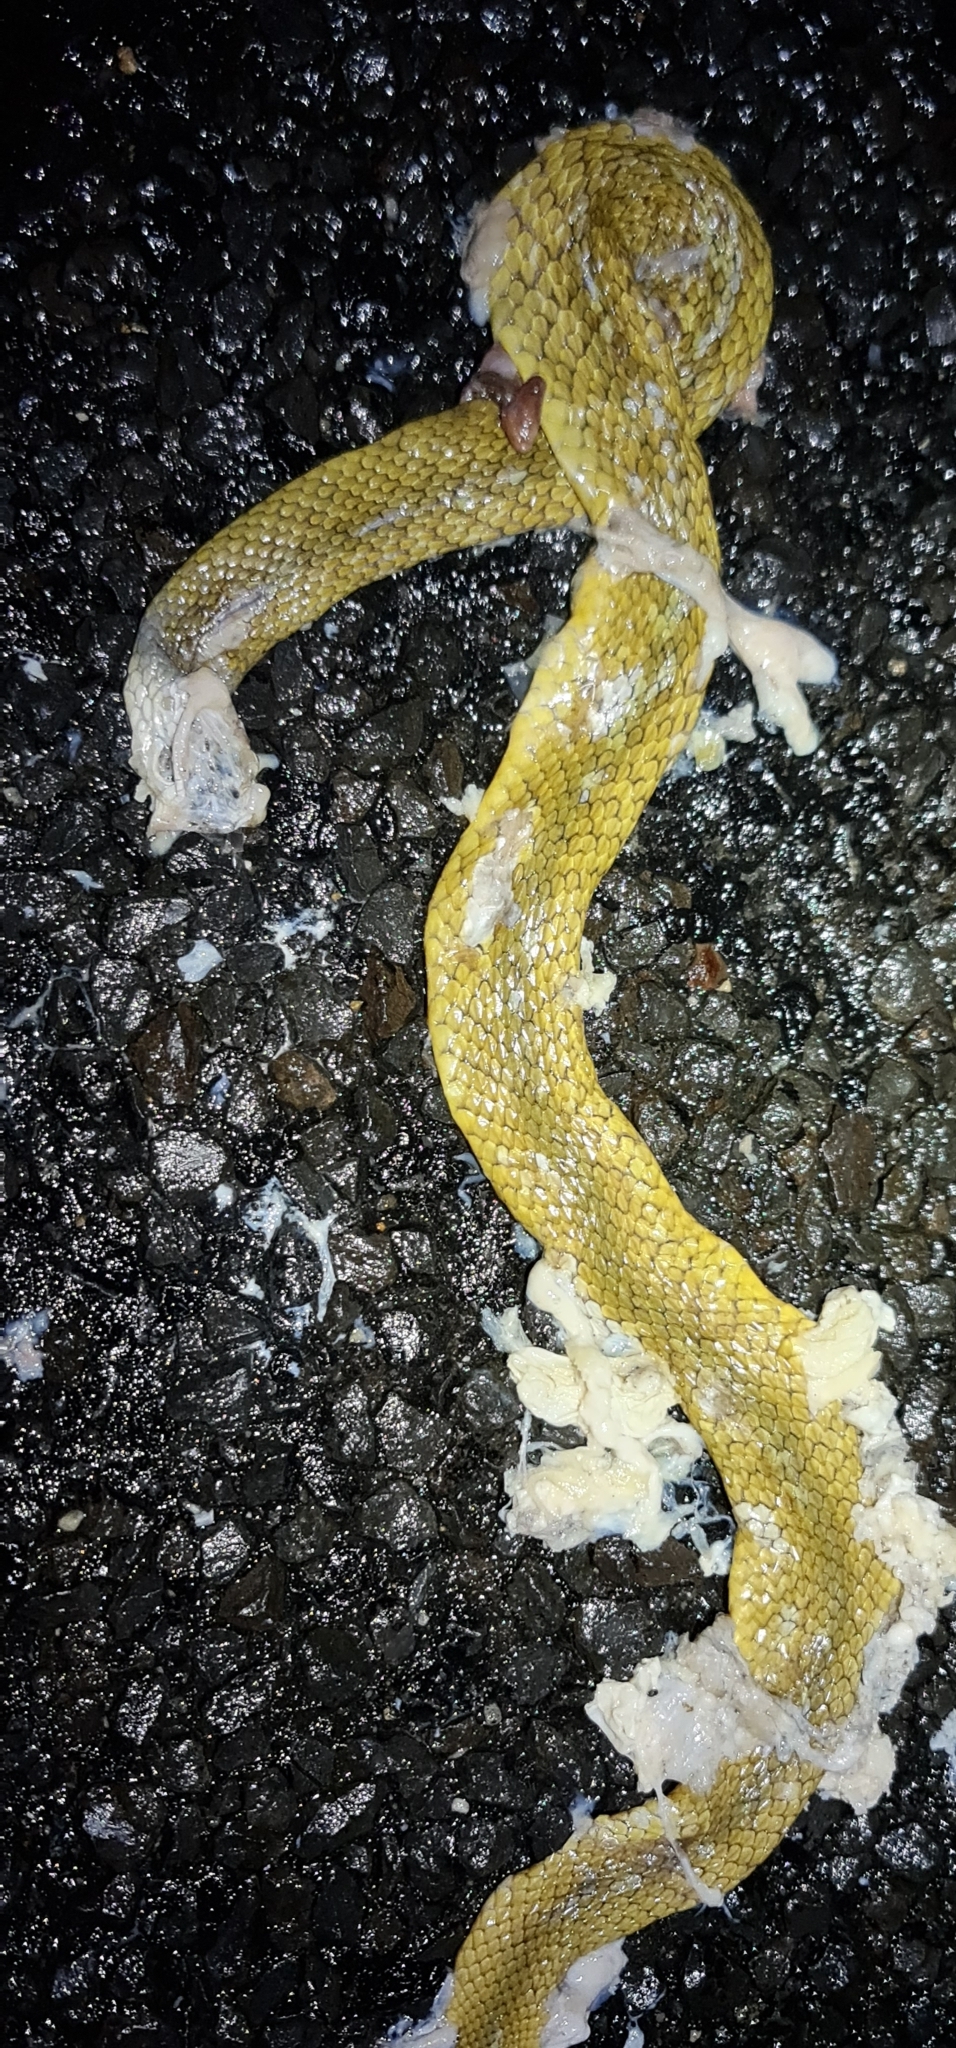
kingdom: Animalia
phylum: Chordata
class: Squamata
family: Colubridae
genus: Tropidonophis
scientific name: Tropidonophis mairii
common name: Common keelback
